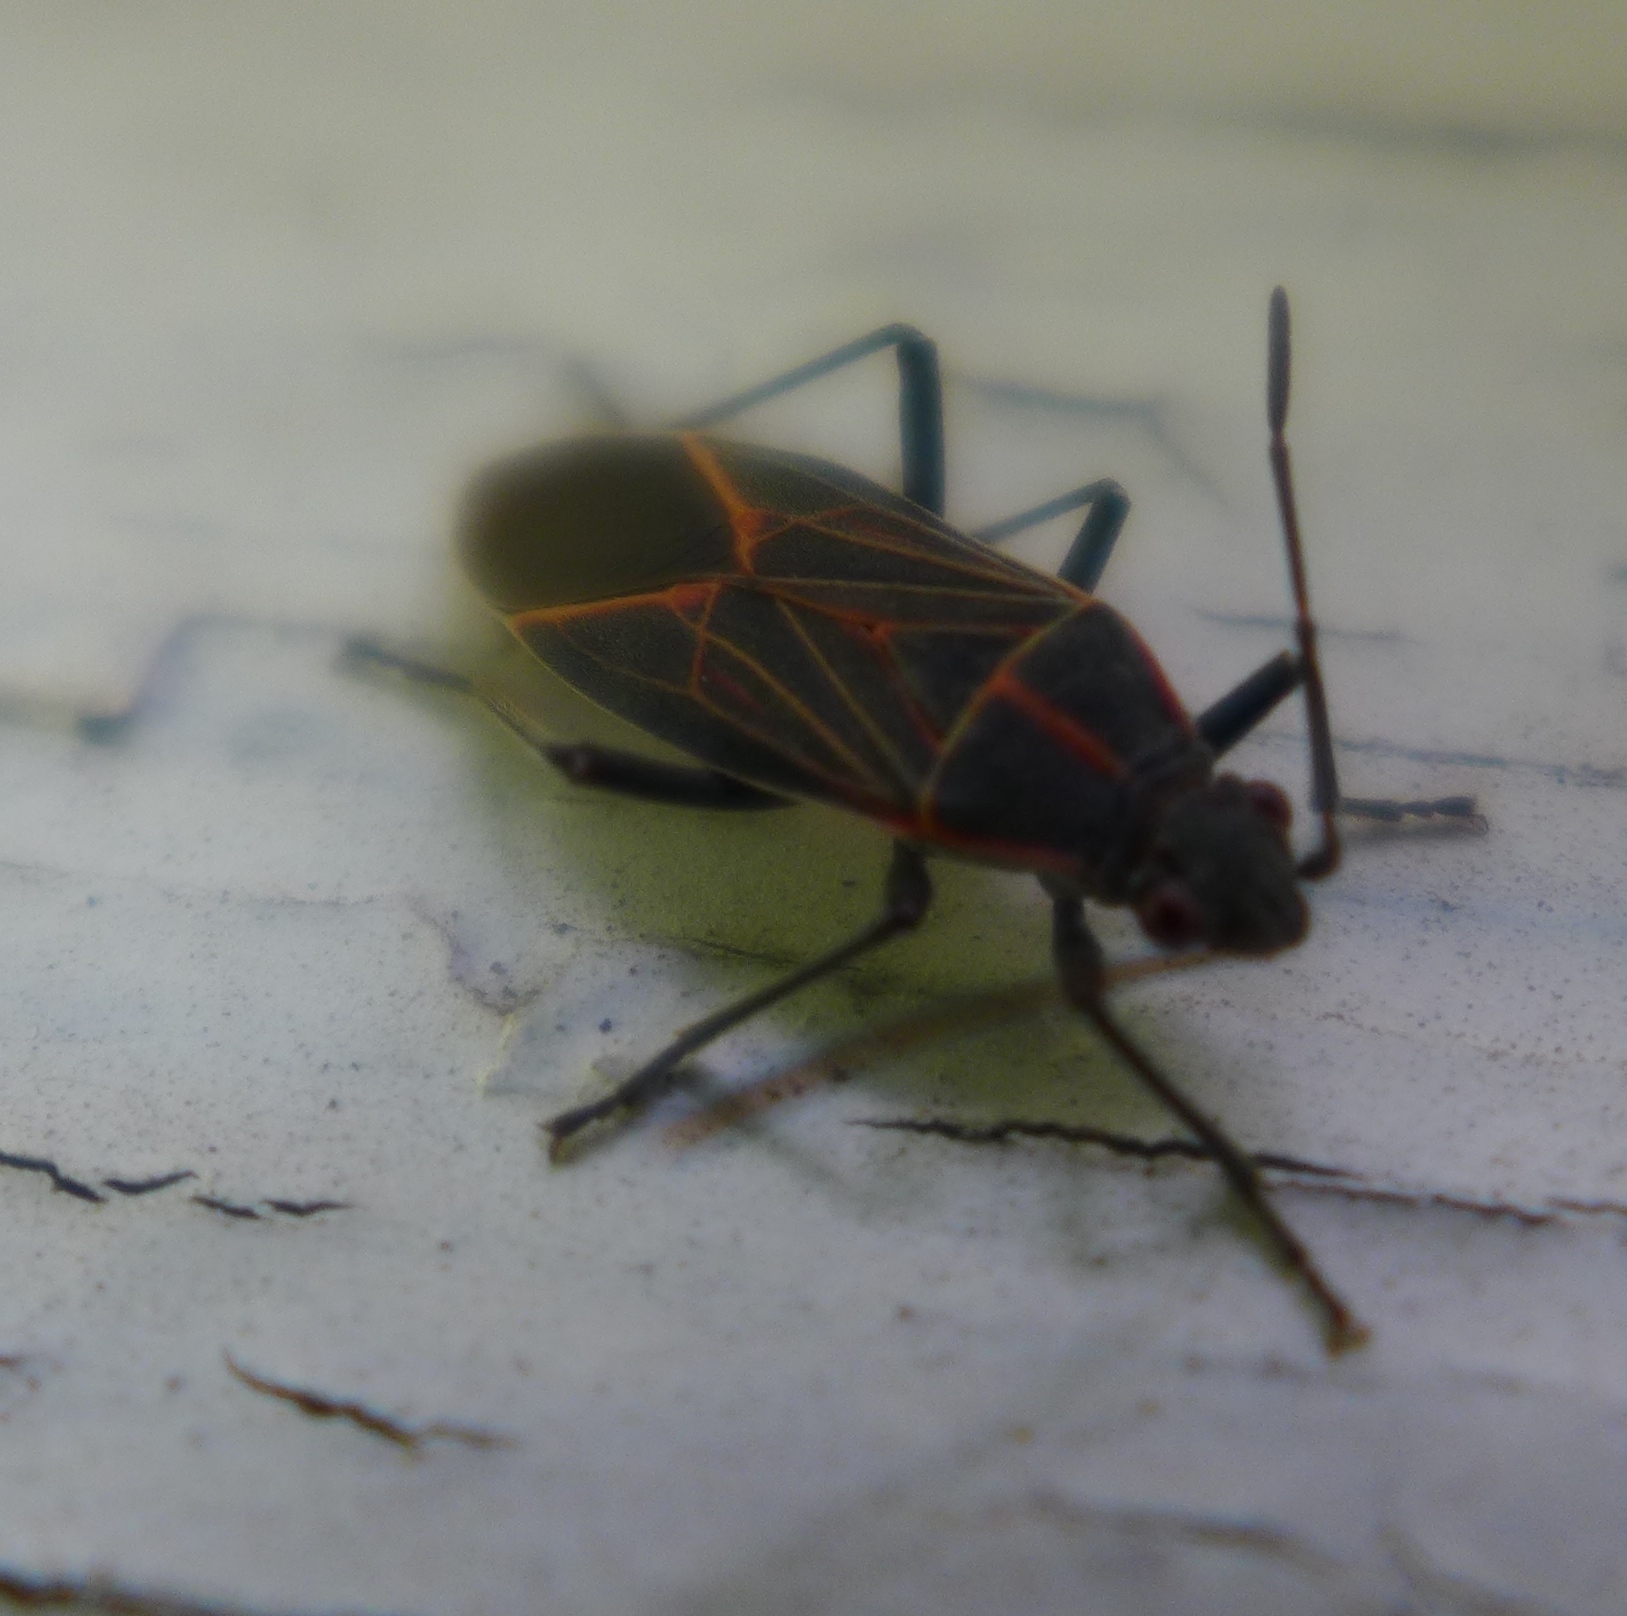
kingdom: Animalia
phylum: Arthropoda
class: Insecta
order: Hemiptera
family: Rhopalidae
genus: Boisea
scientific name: Boisea rubrolineata
